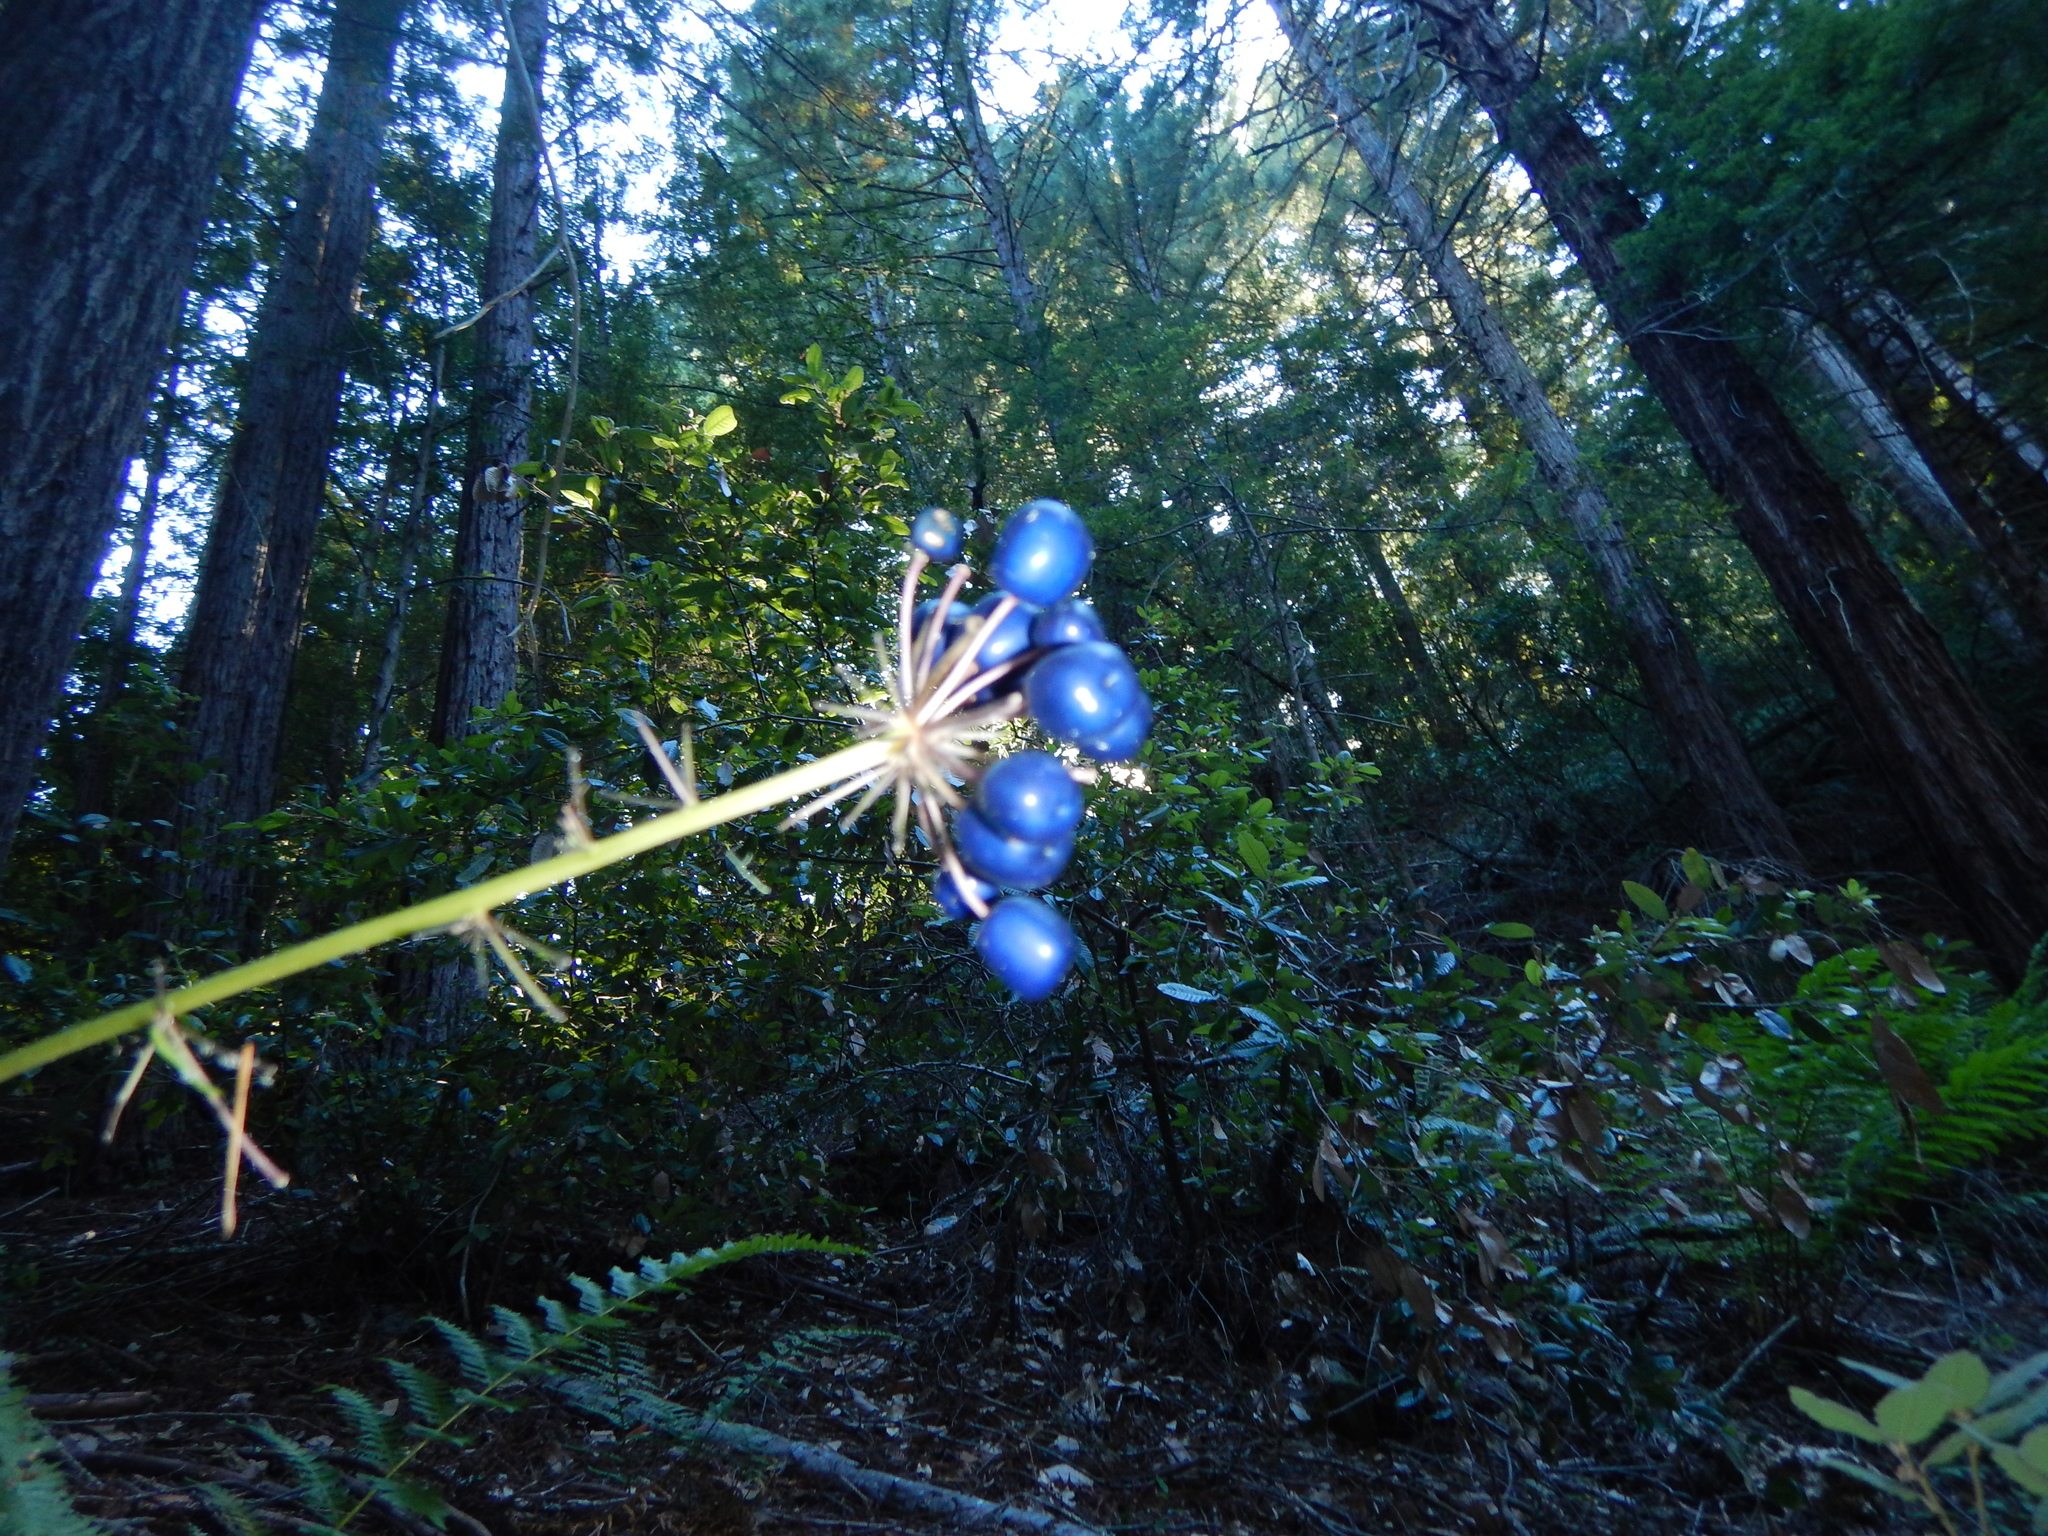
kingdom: Plantae
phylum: Tracheophyta
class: Liliopsida
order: Liliales
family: Liliaceae
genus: Clintonia
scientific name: Clintonia andrewsiana
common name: Red clintonia
